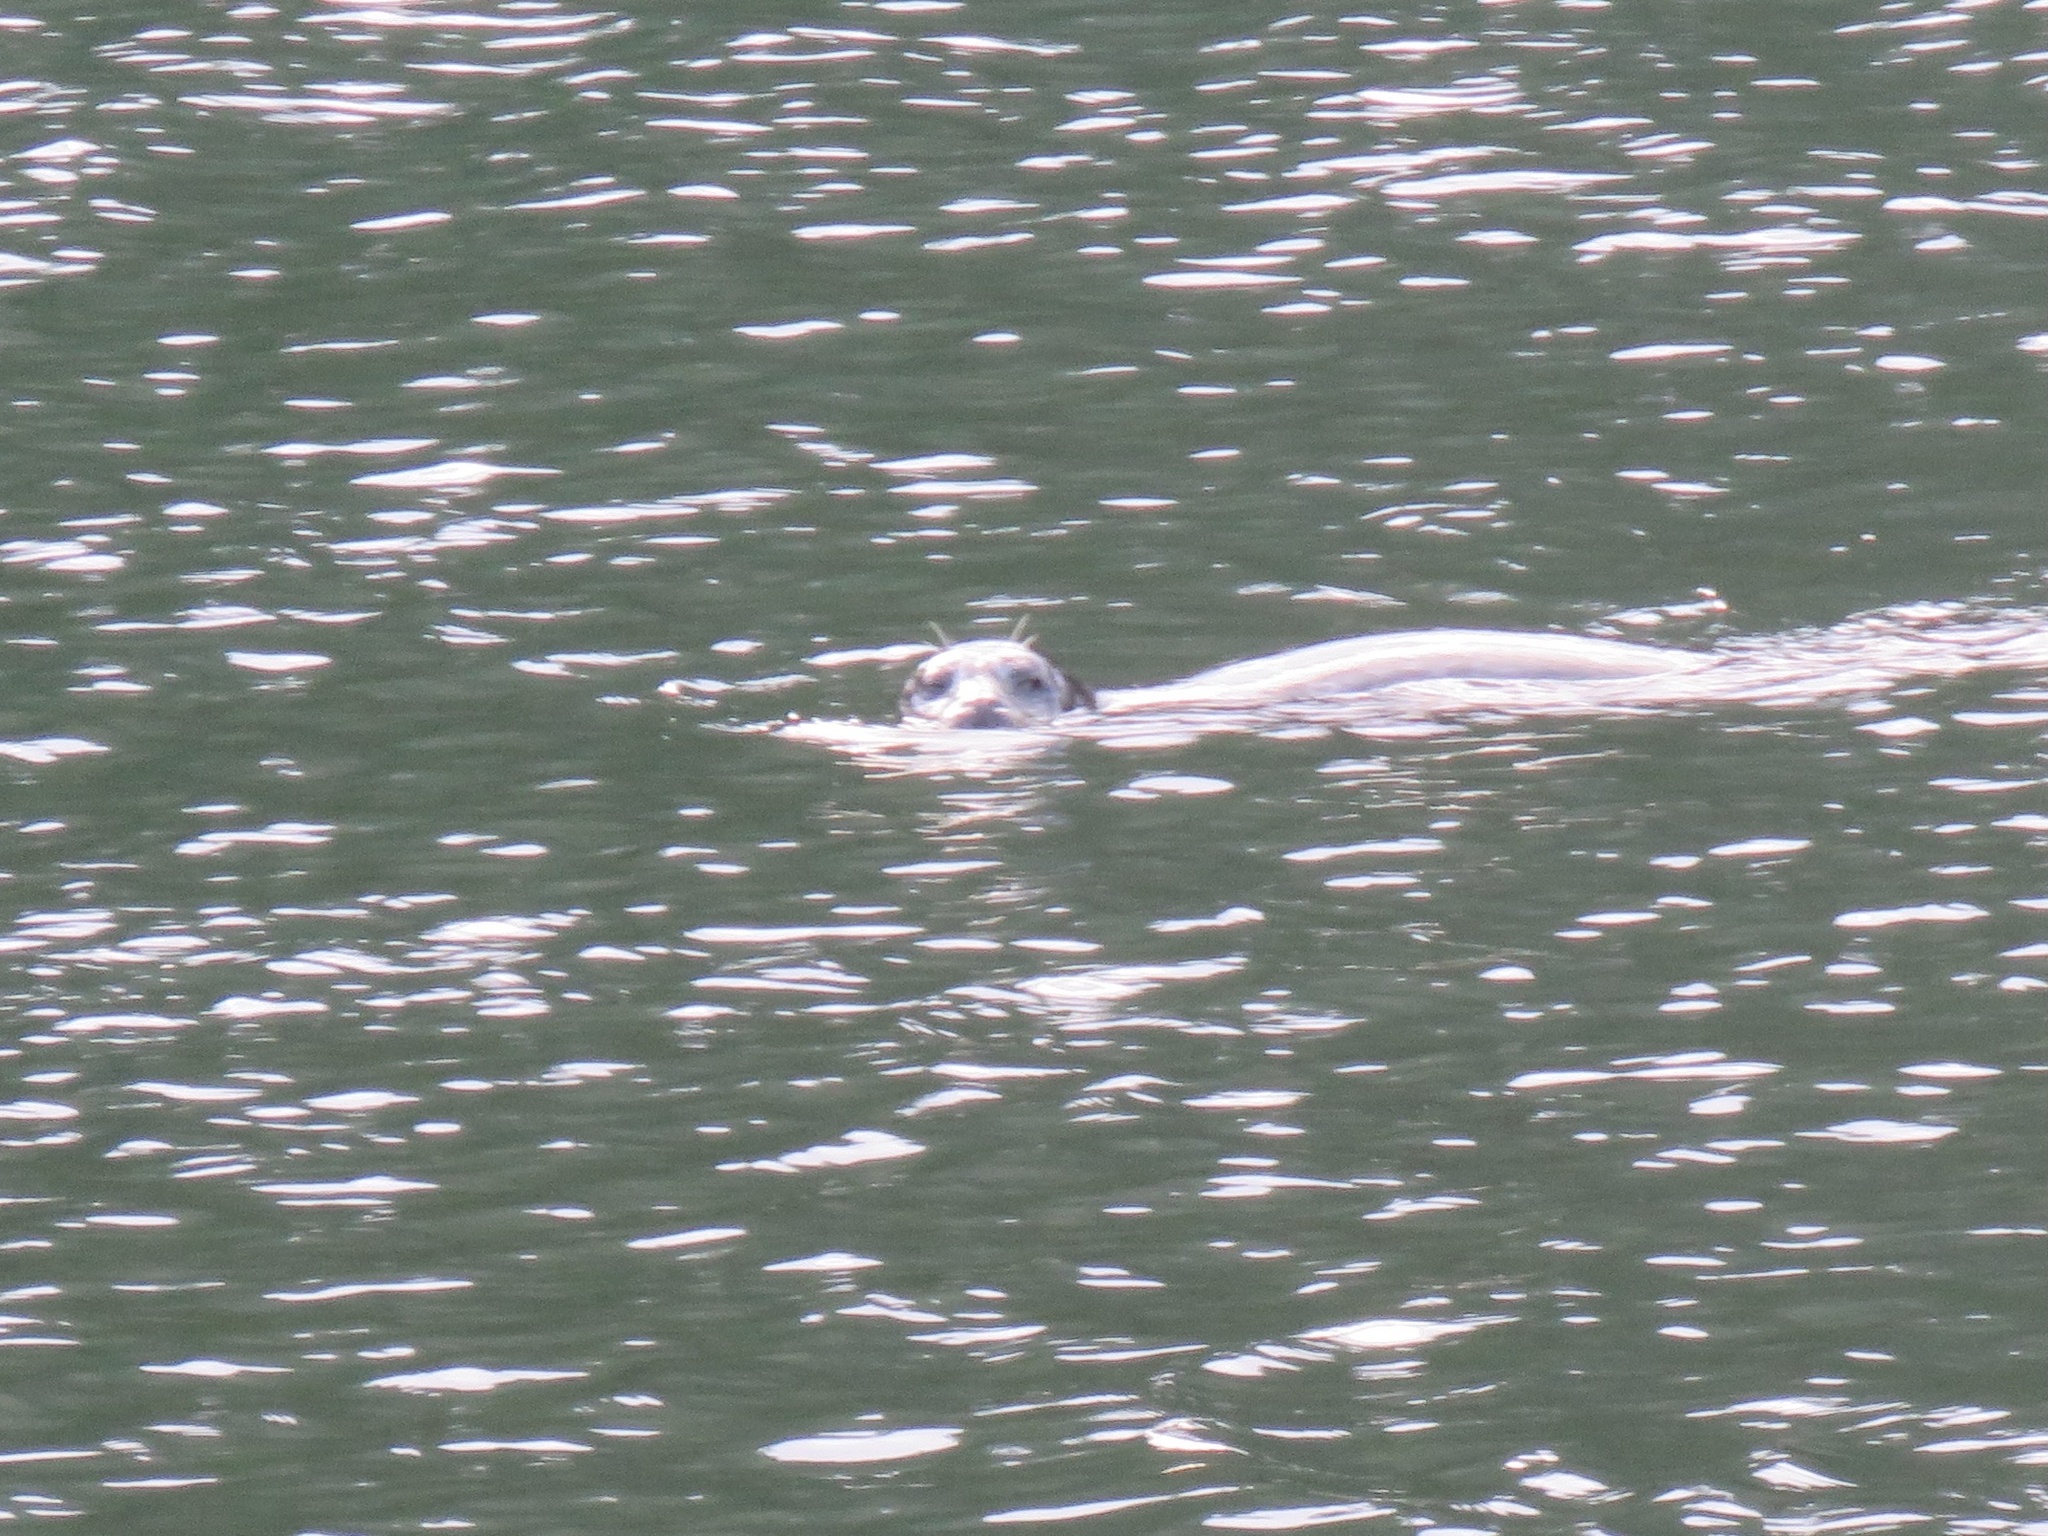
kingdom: Animalia
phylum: Chordata
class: Mammalia
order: Carnivora
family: Phocidae
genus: Phoca
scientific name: Phoca vitulina
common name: Harbor seal
